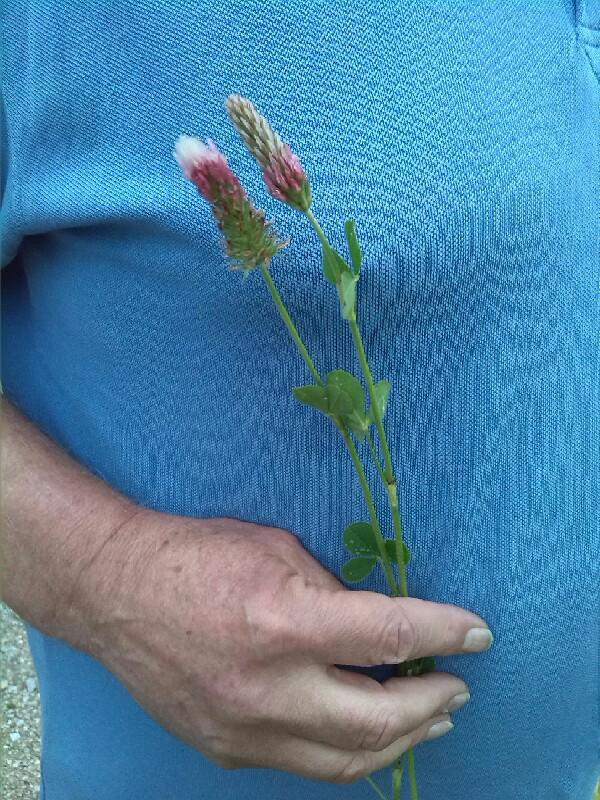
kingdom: Plantae
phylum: Tracheophyta
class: Magnoliopsida
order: Fabales
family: Fabaceae
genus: Trifolium
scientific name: Trifolium incarnatum
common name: Crimson clover
